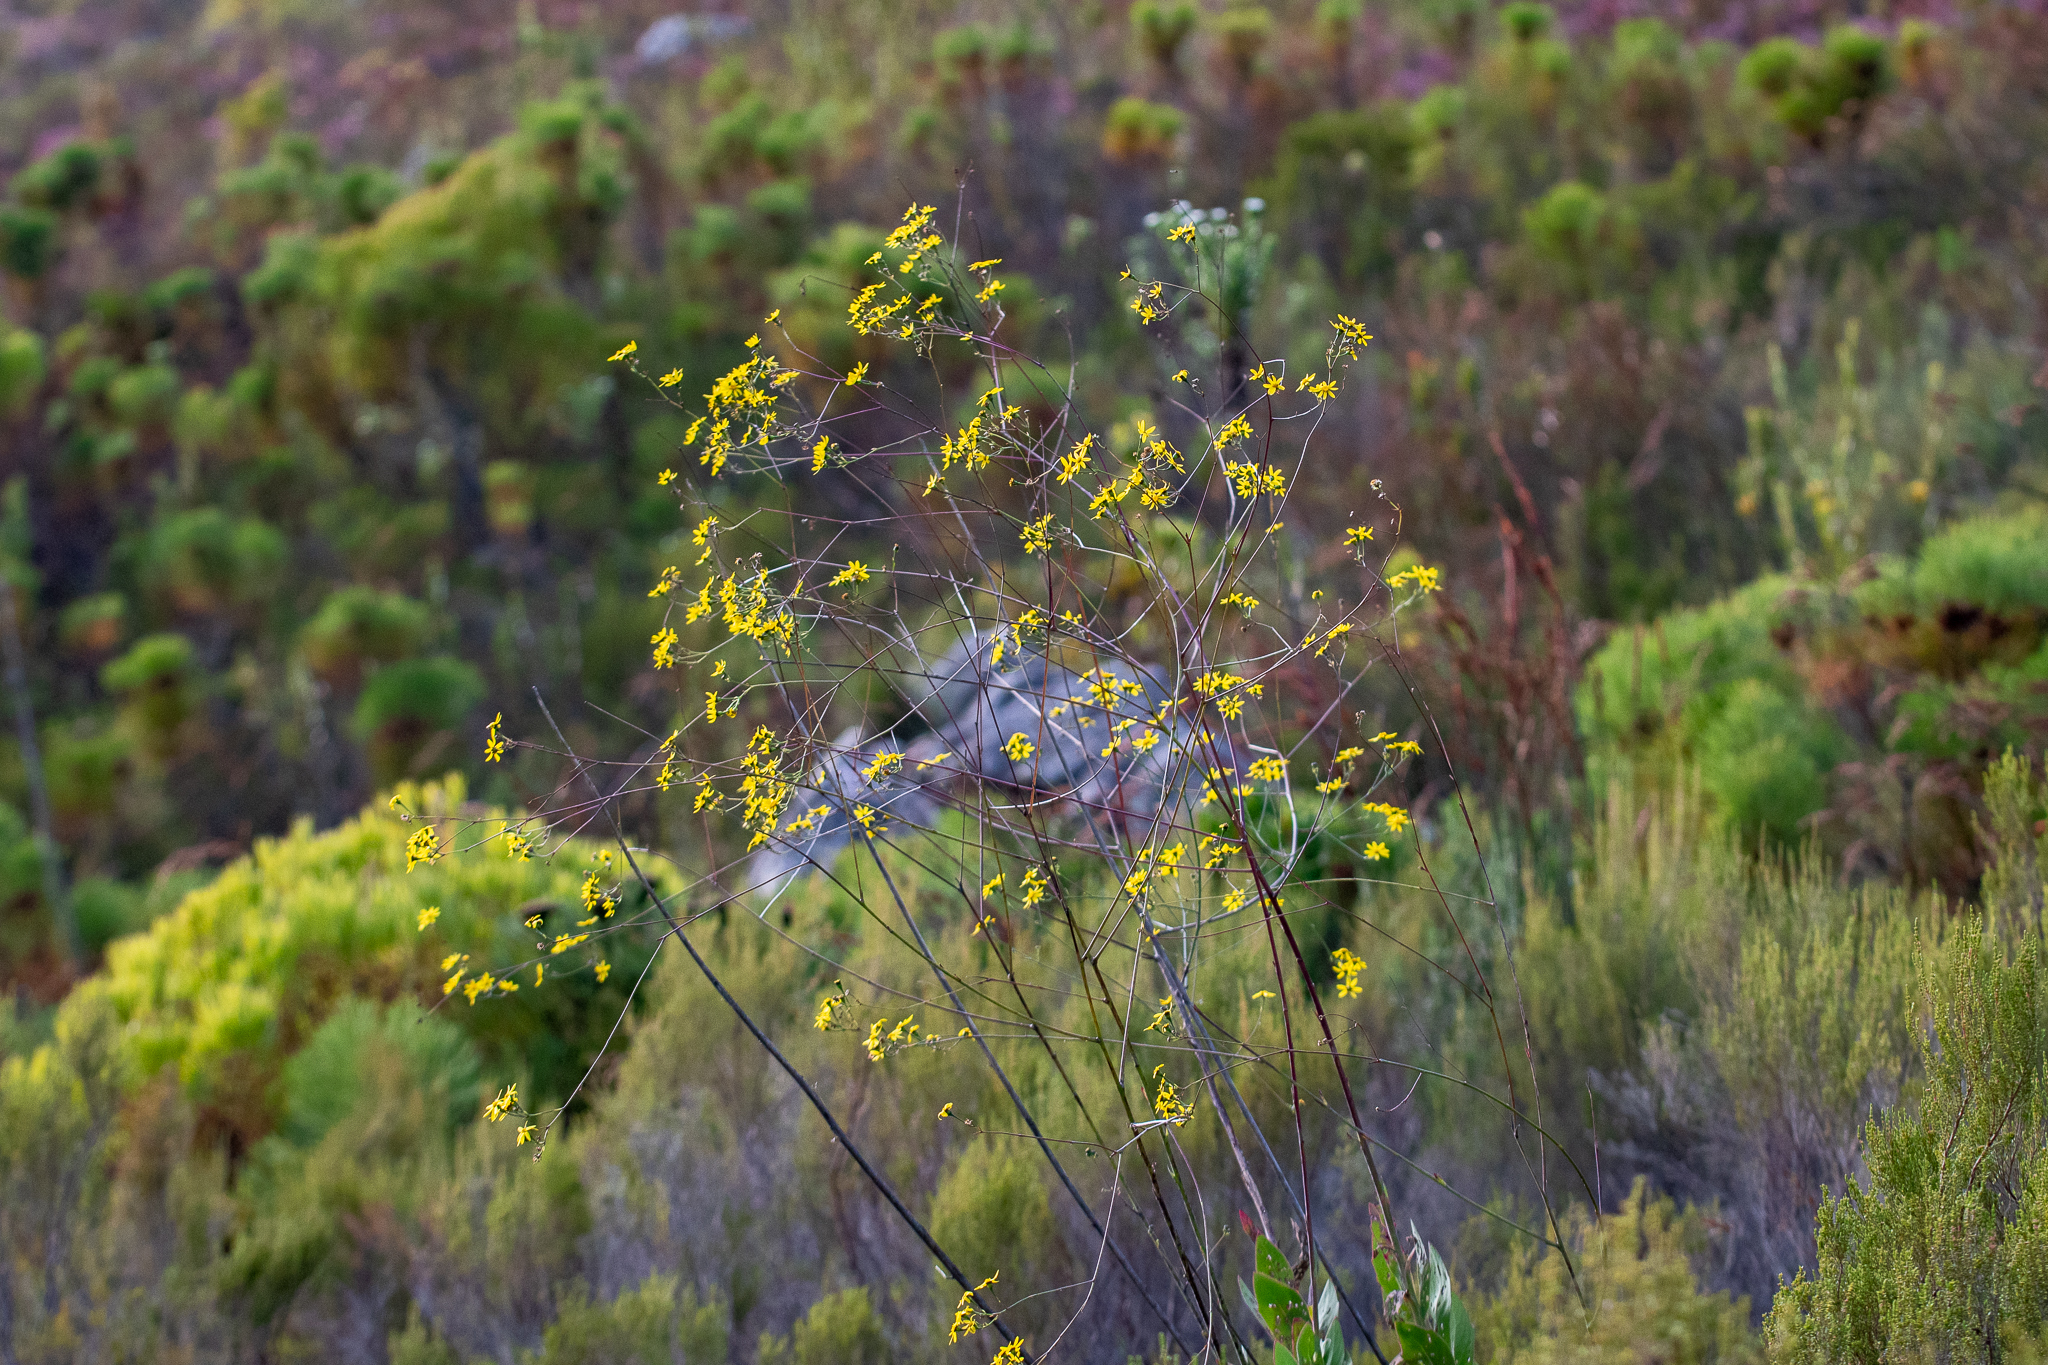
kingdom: Plantae
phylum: Tracheophyta
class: Magnoliopsida
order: Asterales
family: Asteraceae
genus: Othonna
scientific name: Othonna quinquedentata
